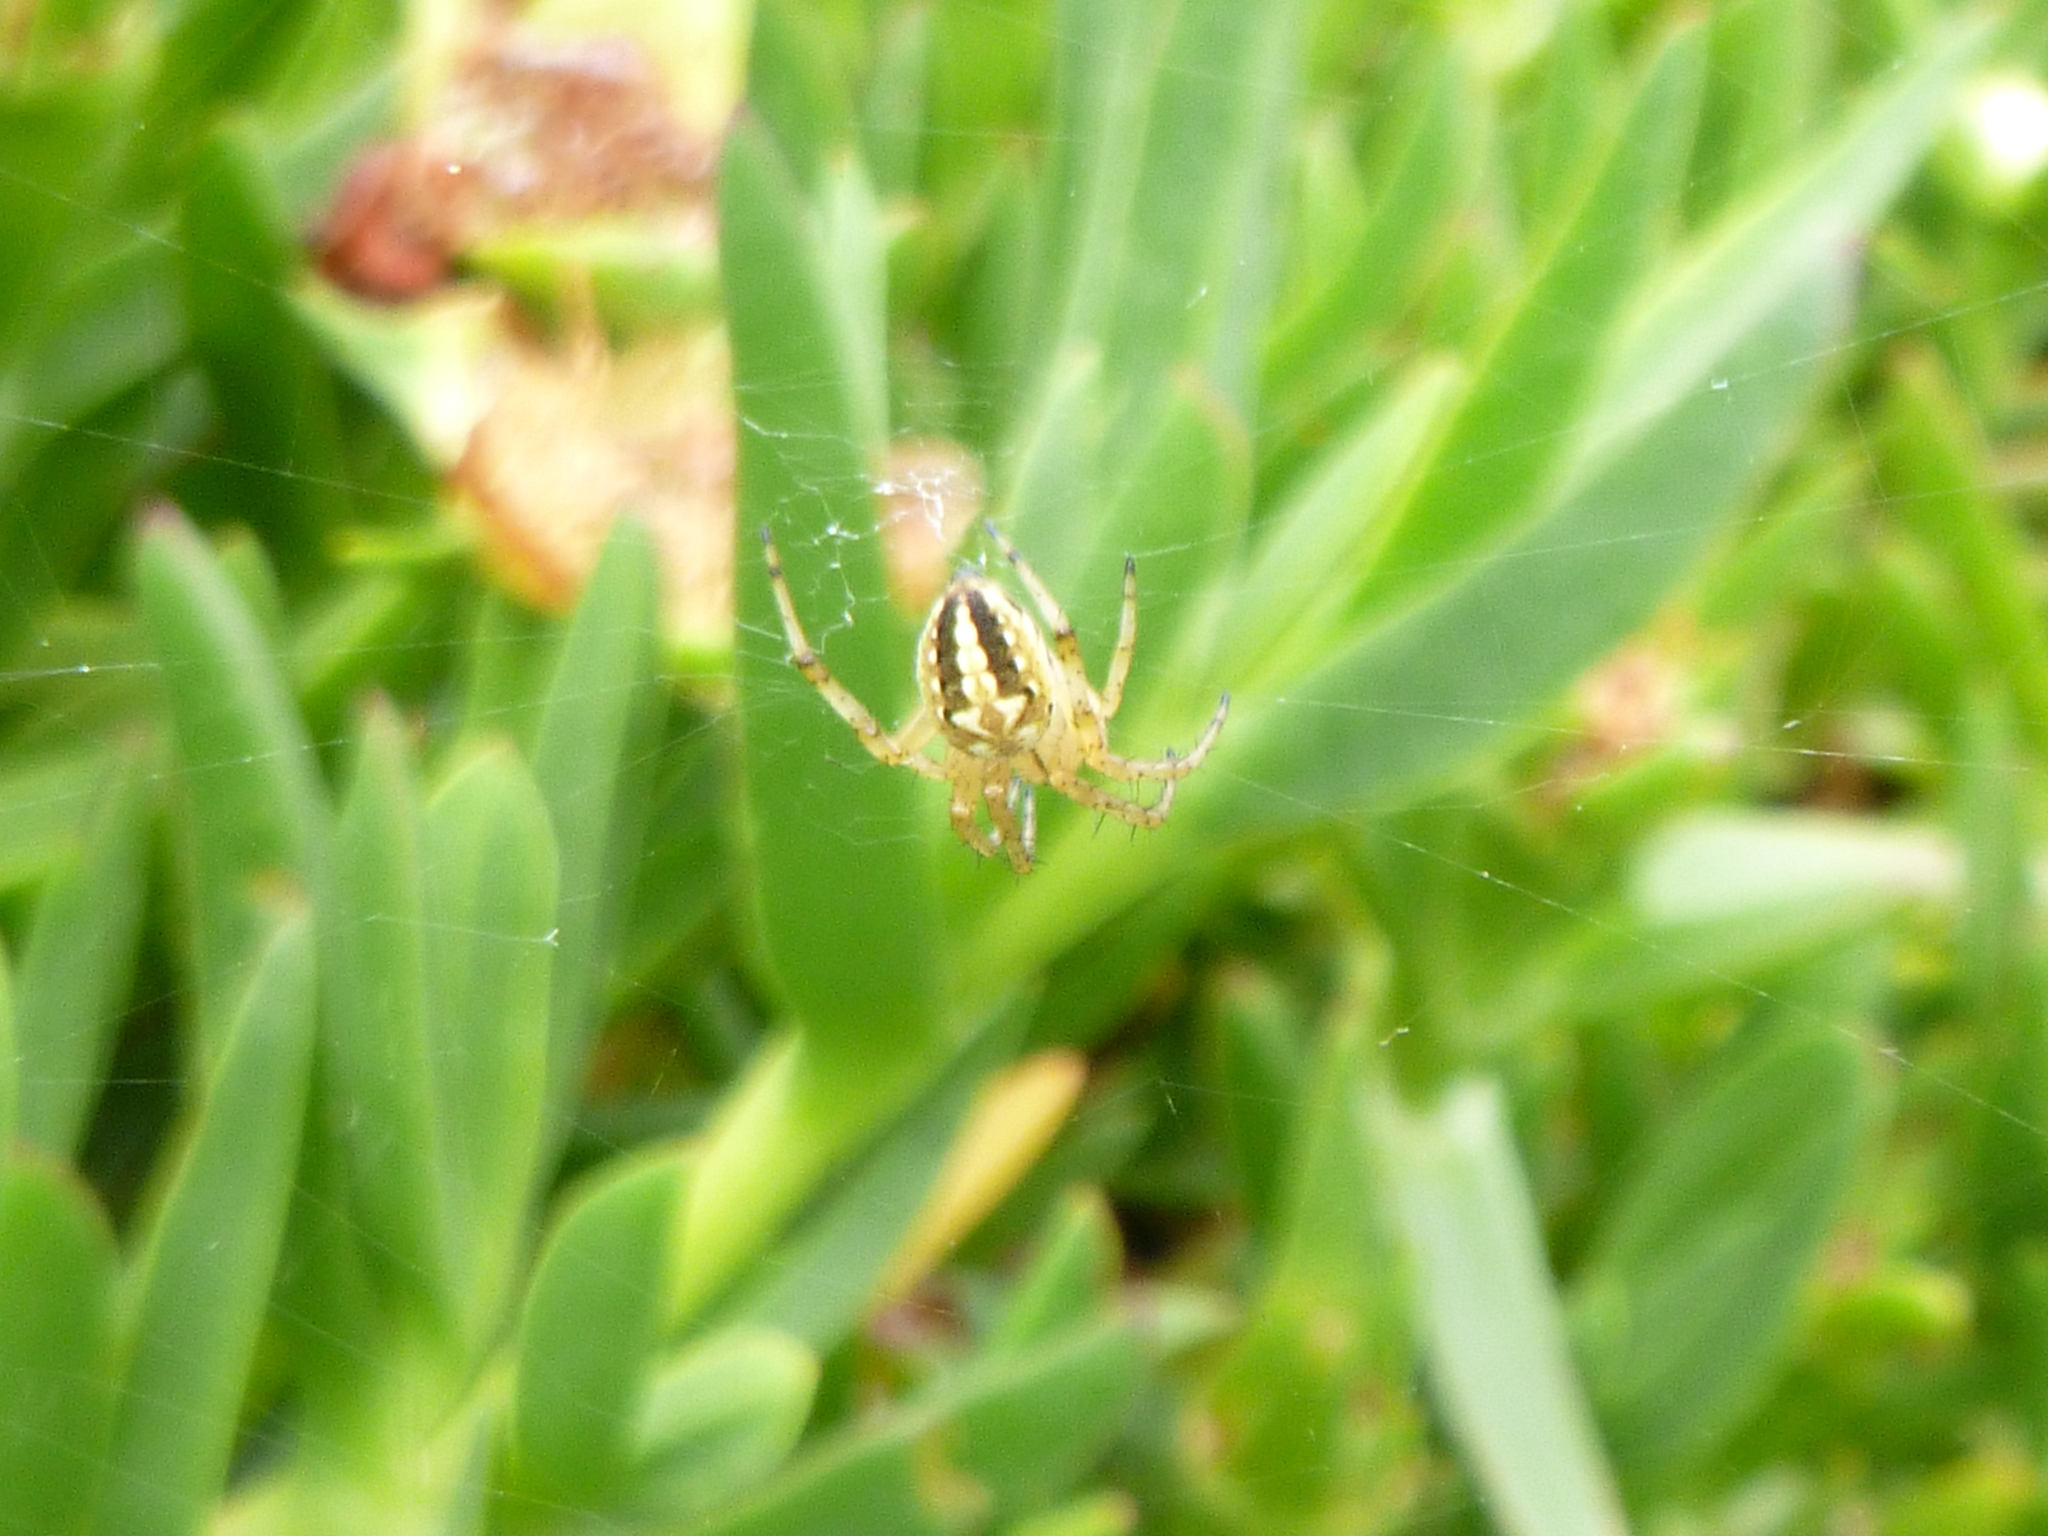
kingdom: Animalia
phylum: Arthropoda
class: Arachnida
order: Araneae
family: Araneidae
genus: Neoscona
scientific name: Neoscona oaxacensis
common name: Orb weavers
